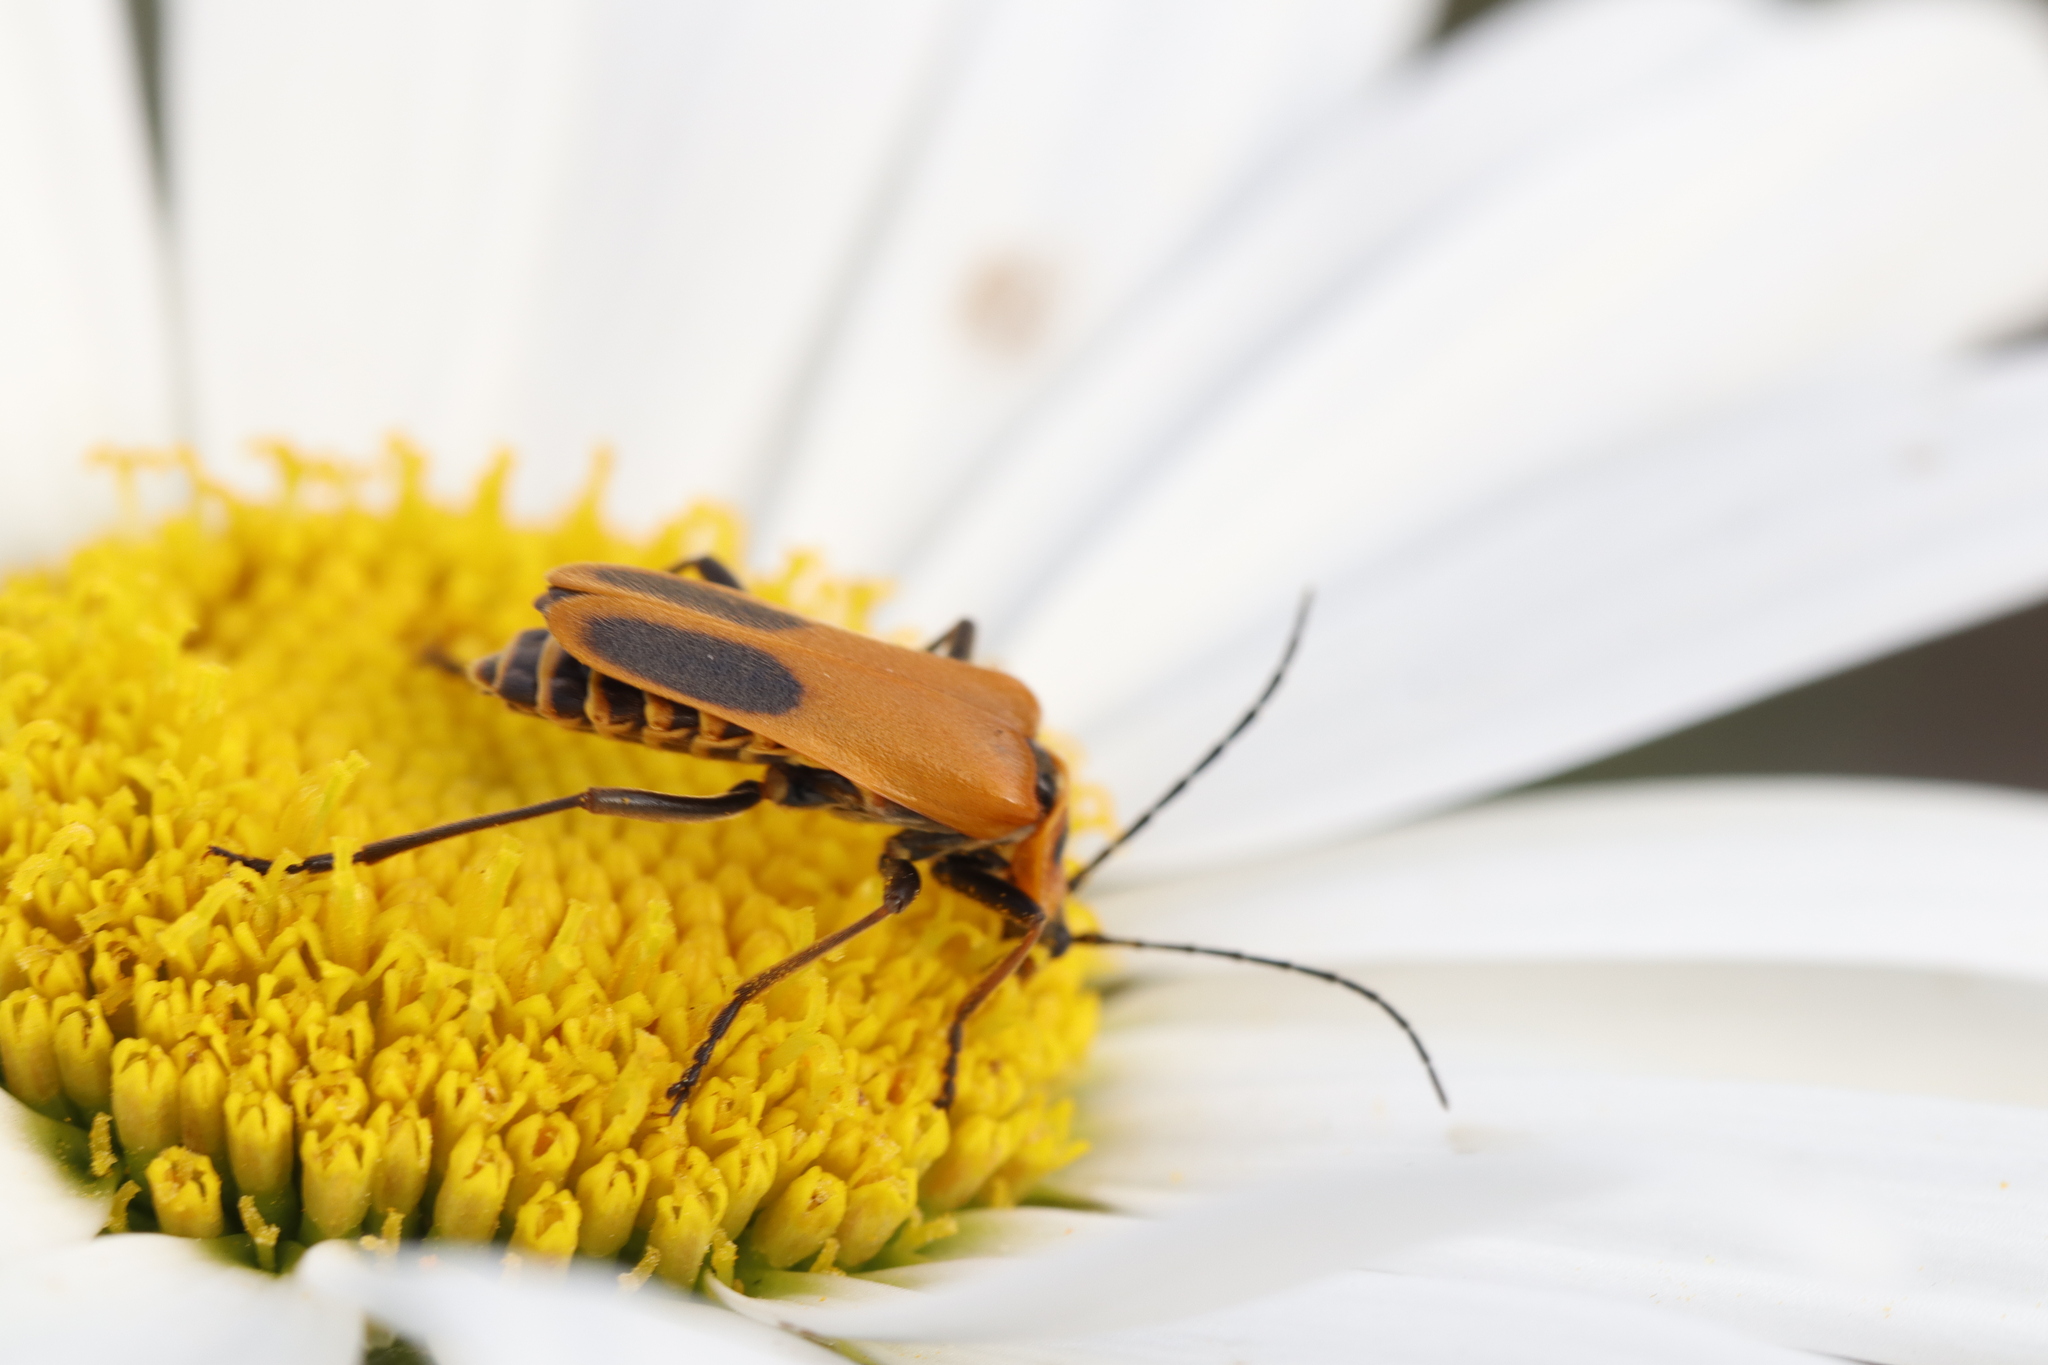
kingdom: Animalia
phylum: Arthropoda
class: Insecta
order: Coleoptera
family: Cantharidae
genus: Chauliognathus
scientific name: Chauliognathus pensylvanicus
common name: Goldenrod soldier beetle
